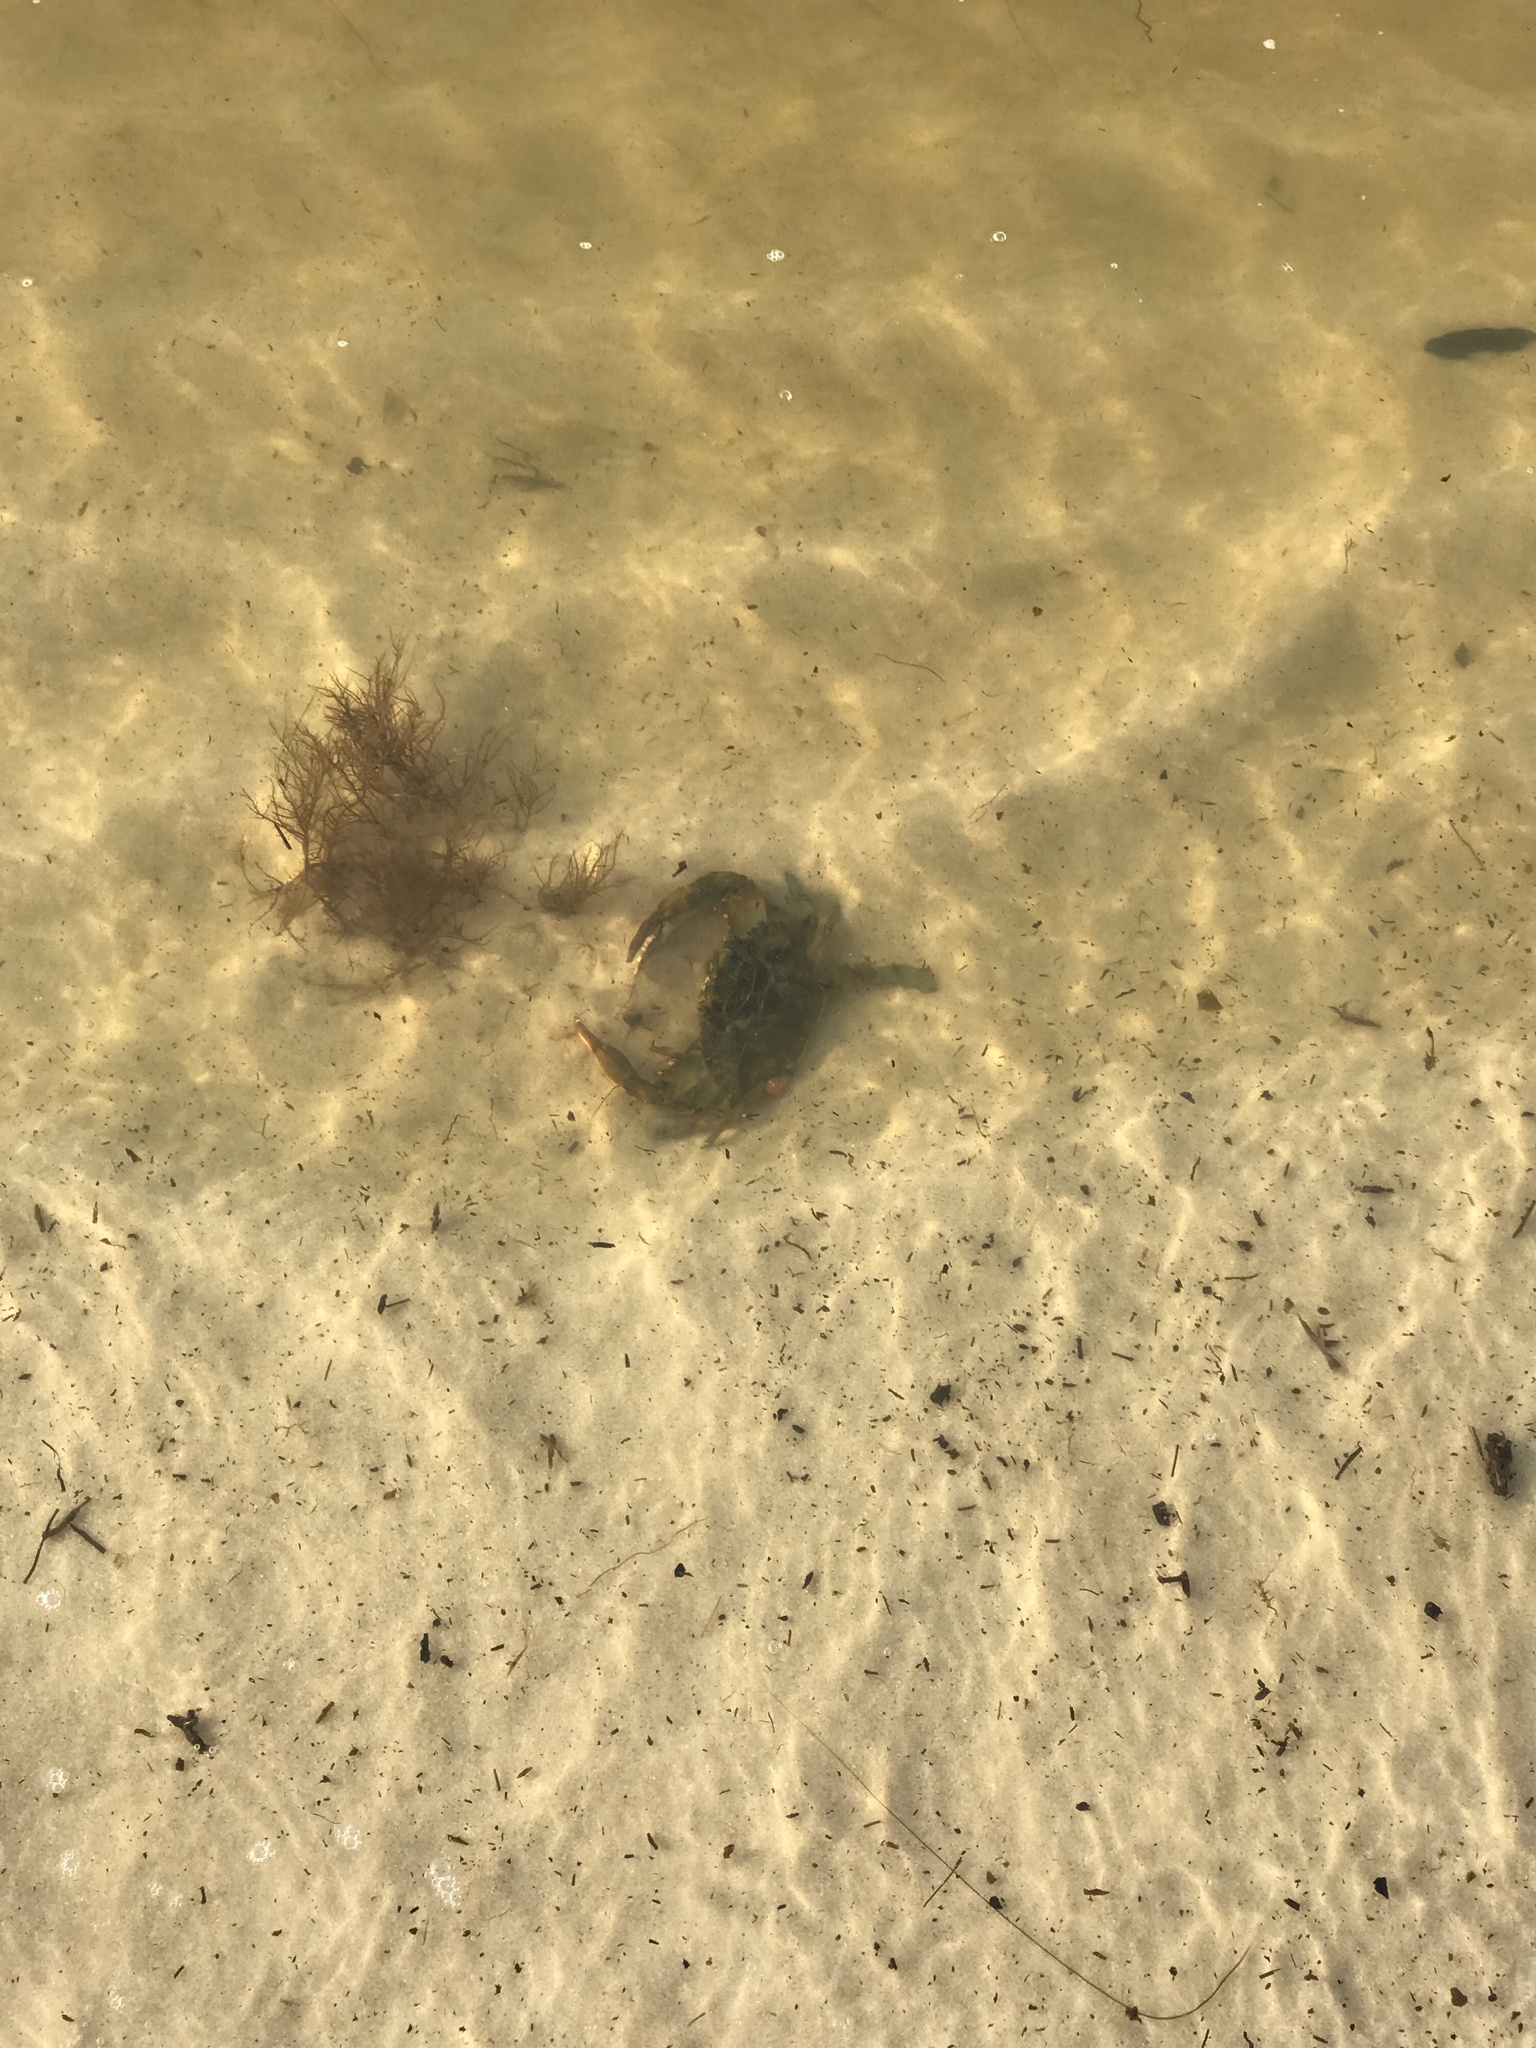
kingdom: Animalia
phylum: Arthropoda
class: Malacostraca
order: Decapoda
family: Portunidae
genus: Callinectes
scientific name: Callinectes sapidus
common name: Blue crab
